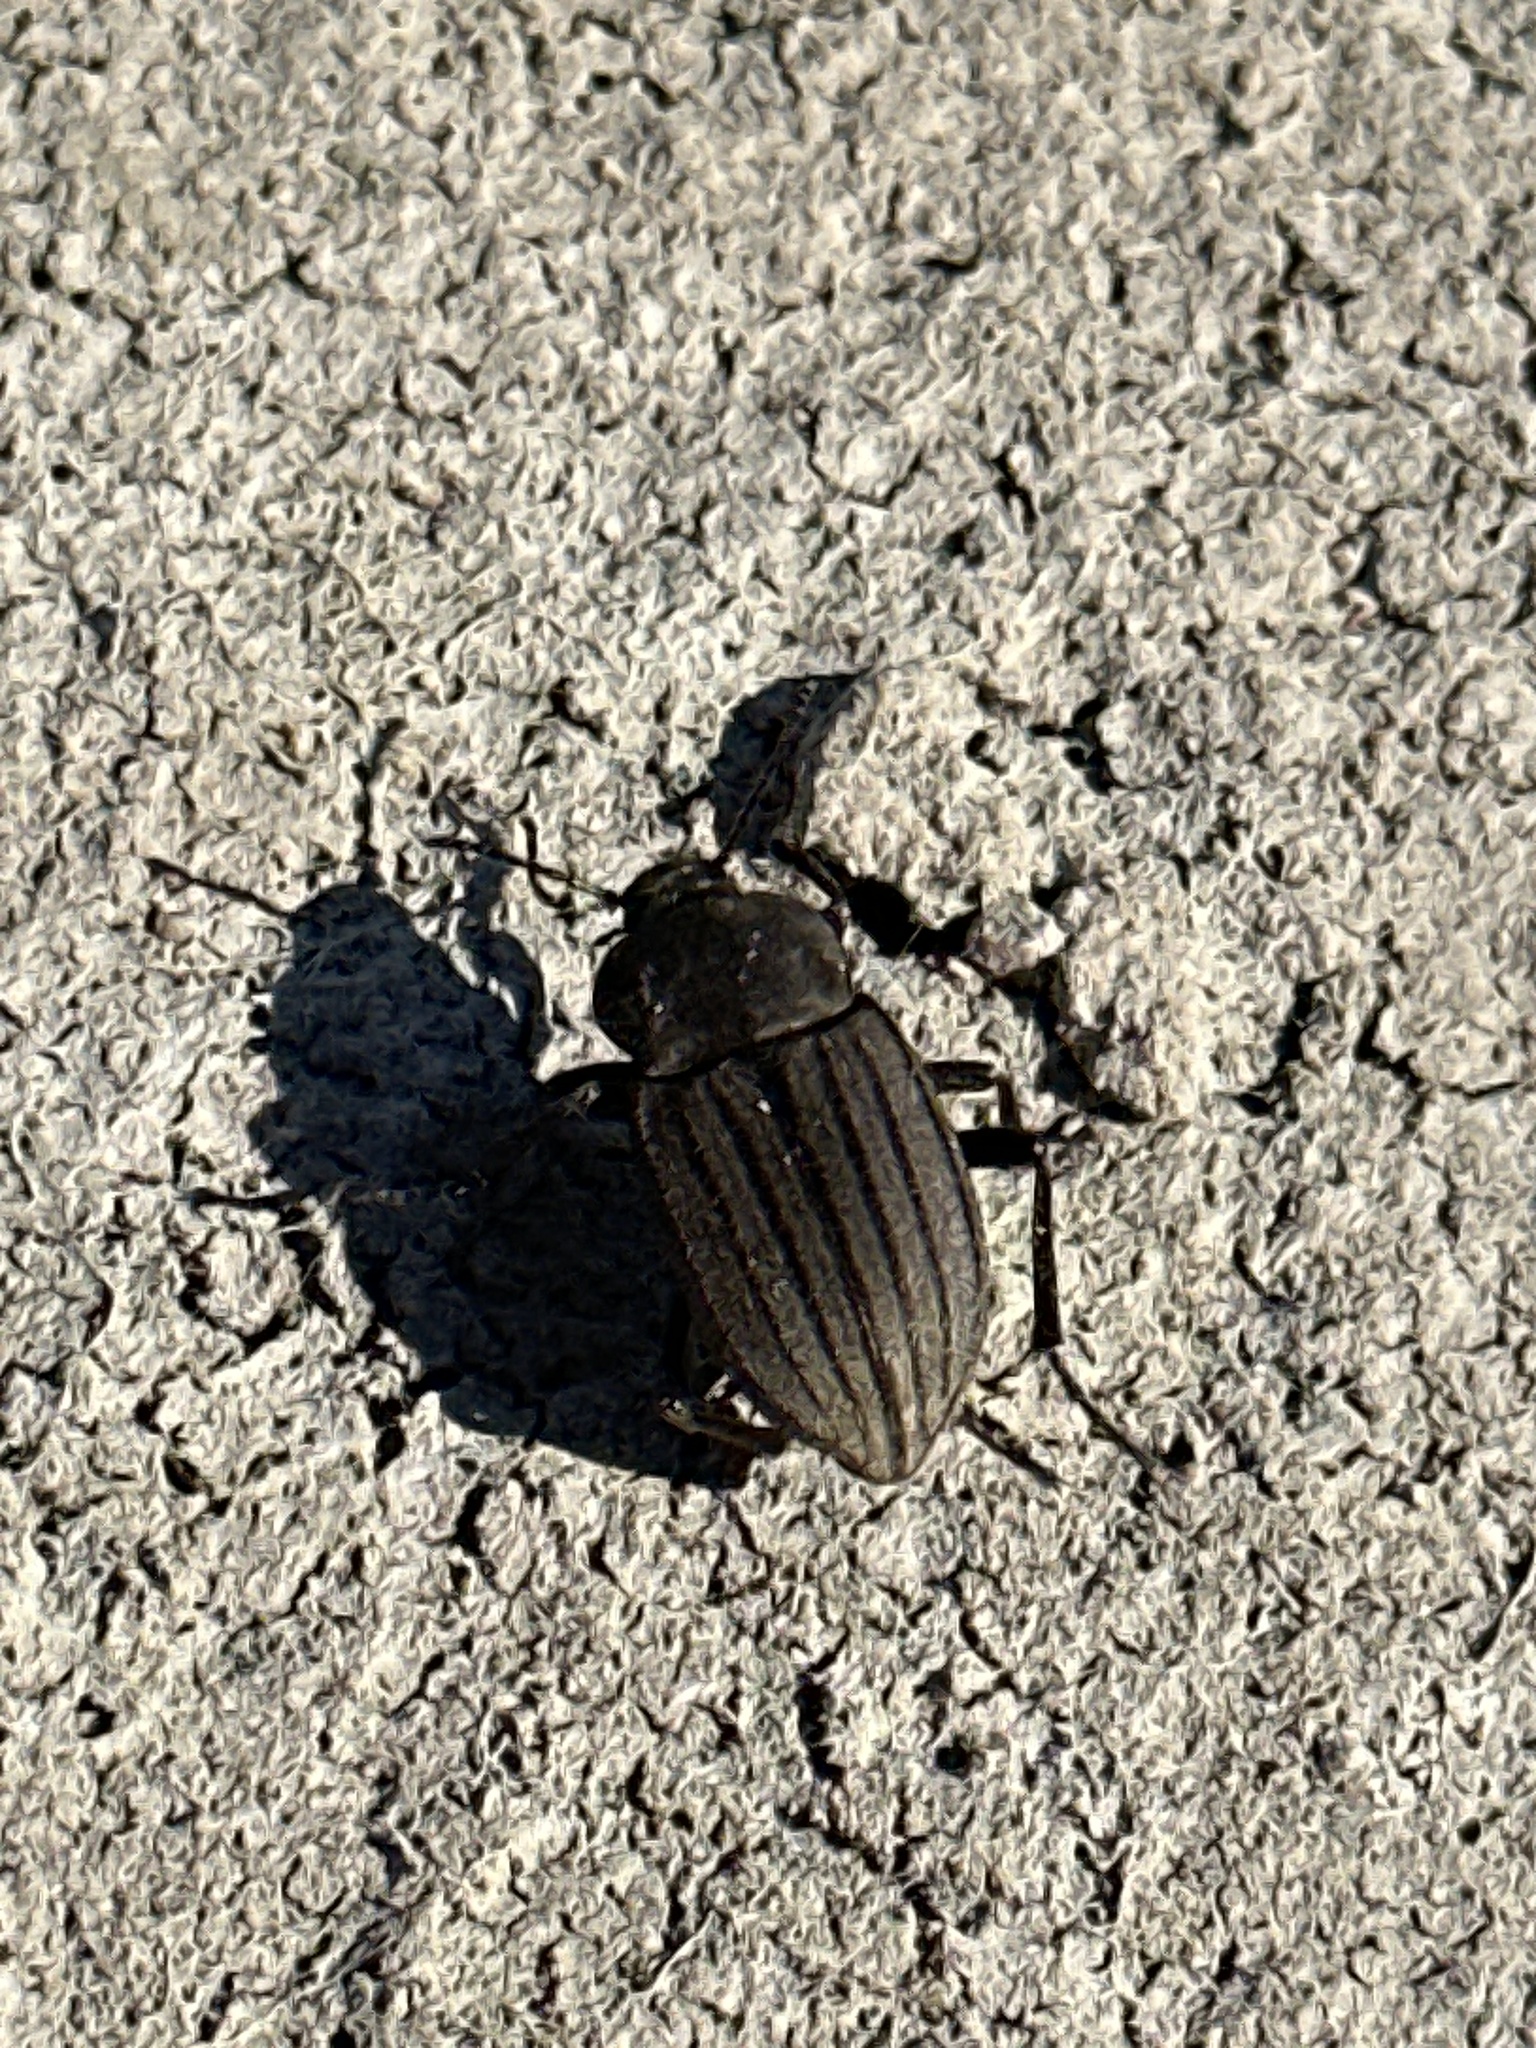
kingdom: Animalia
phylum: Arthropoda
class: Insecta
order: Coleoptera
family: Tenebrionidae
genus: Eleodes
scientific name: Eleodes tricostata
